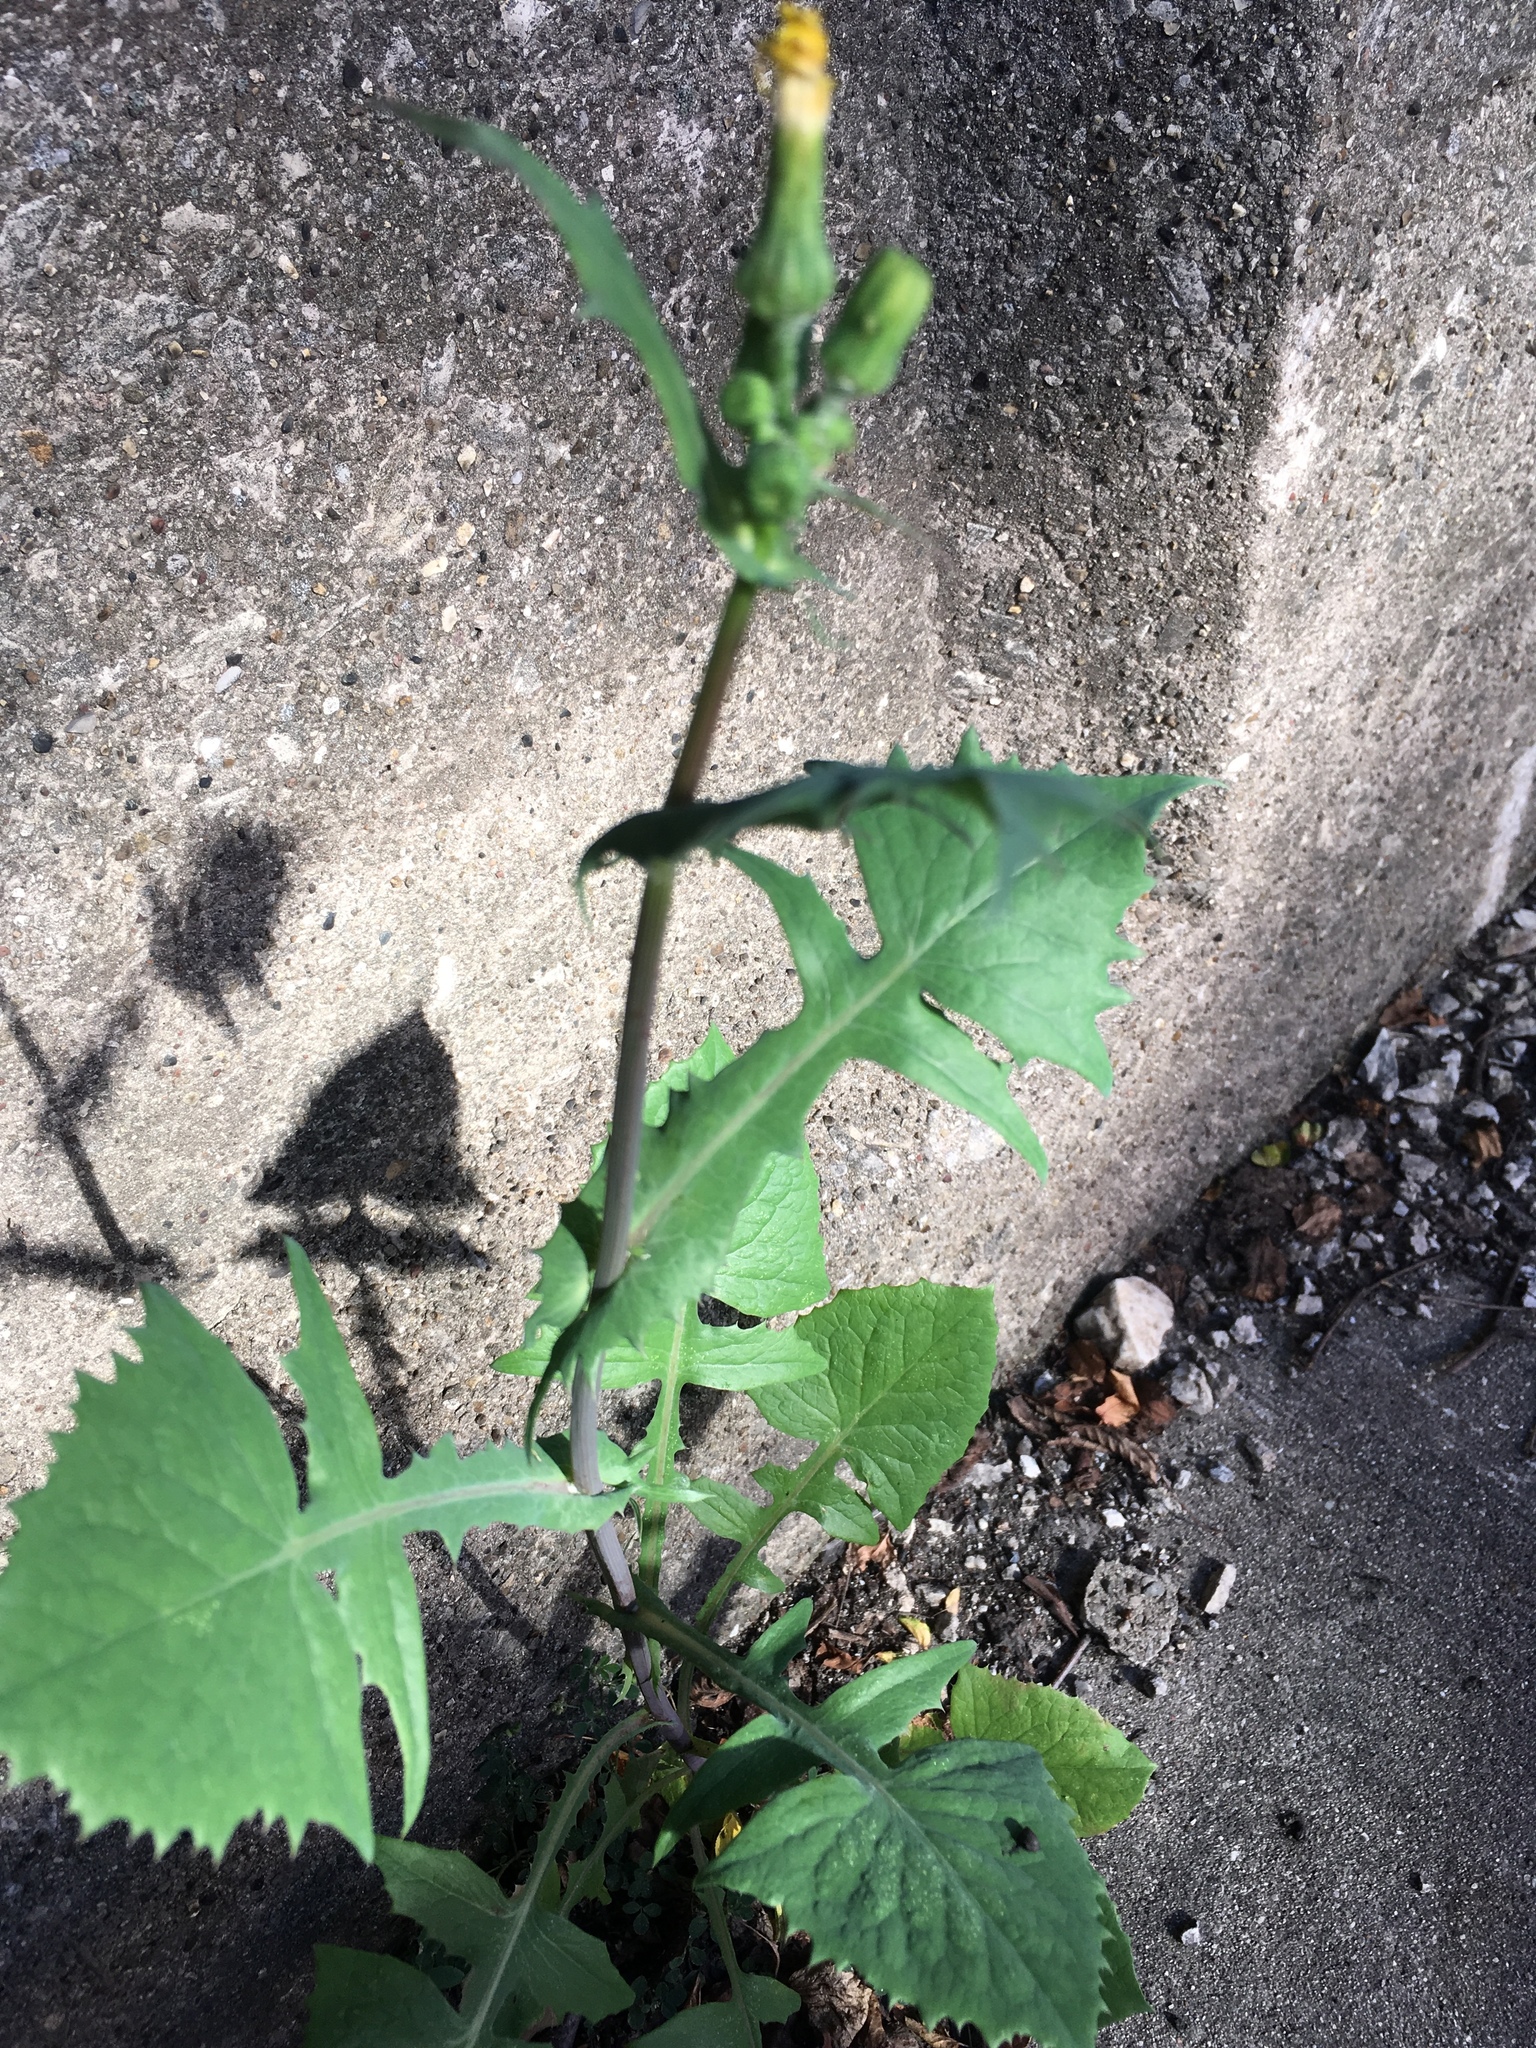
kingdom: Plantae
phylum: Tracheophyta
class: Magnoliopsida
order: Asterales
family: Asteraceae
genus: Sonchus
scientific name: Sonchus oleraceus
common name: Common sowthistle
